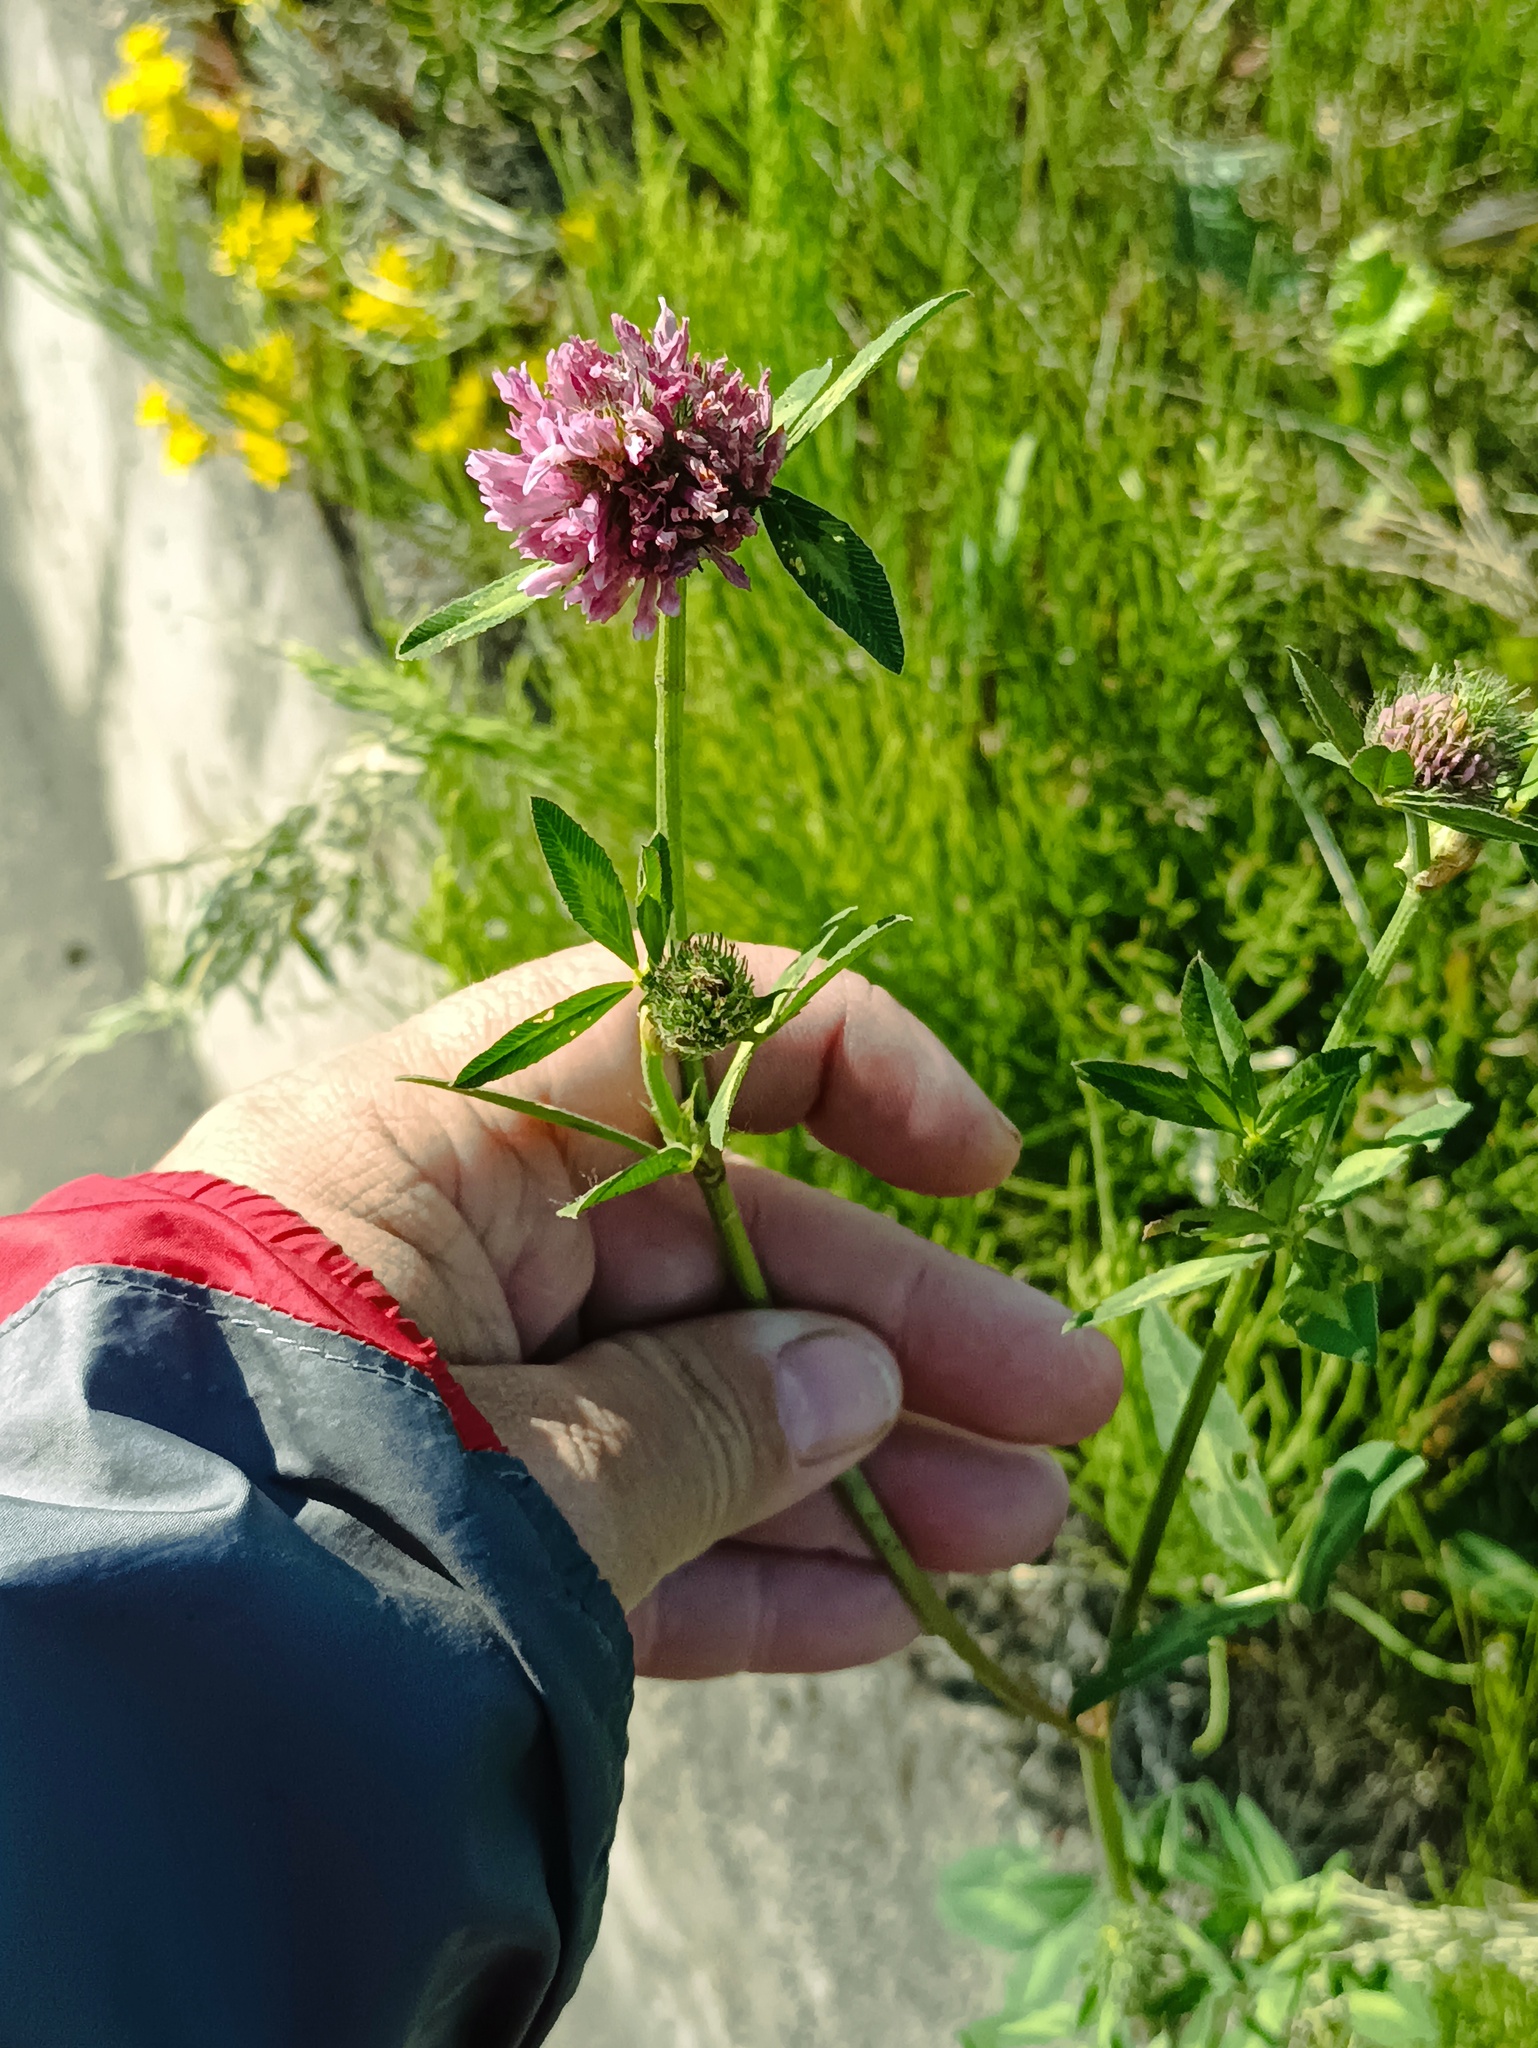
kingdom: Plantae
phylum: Tracheophyta
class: Magnoliopsida
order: Fabales
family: Fabaceae
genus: Trifolium
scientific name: Trifolium pratense
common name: Red clover
